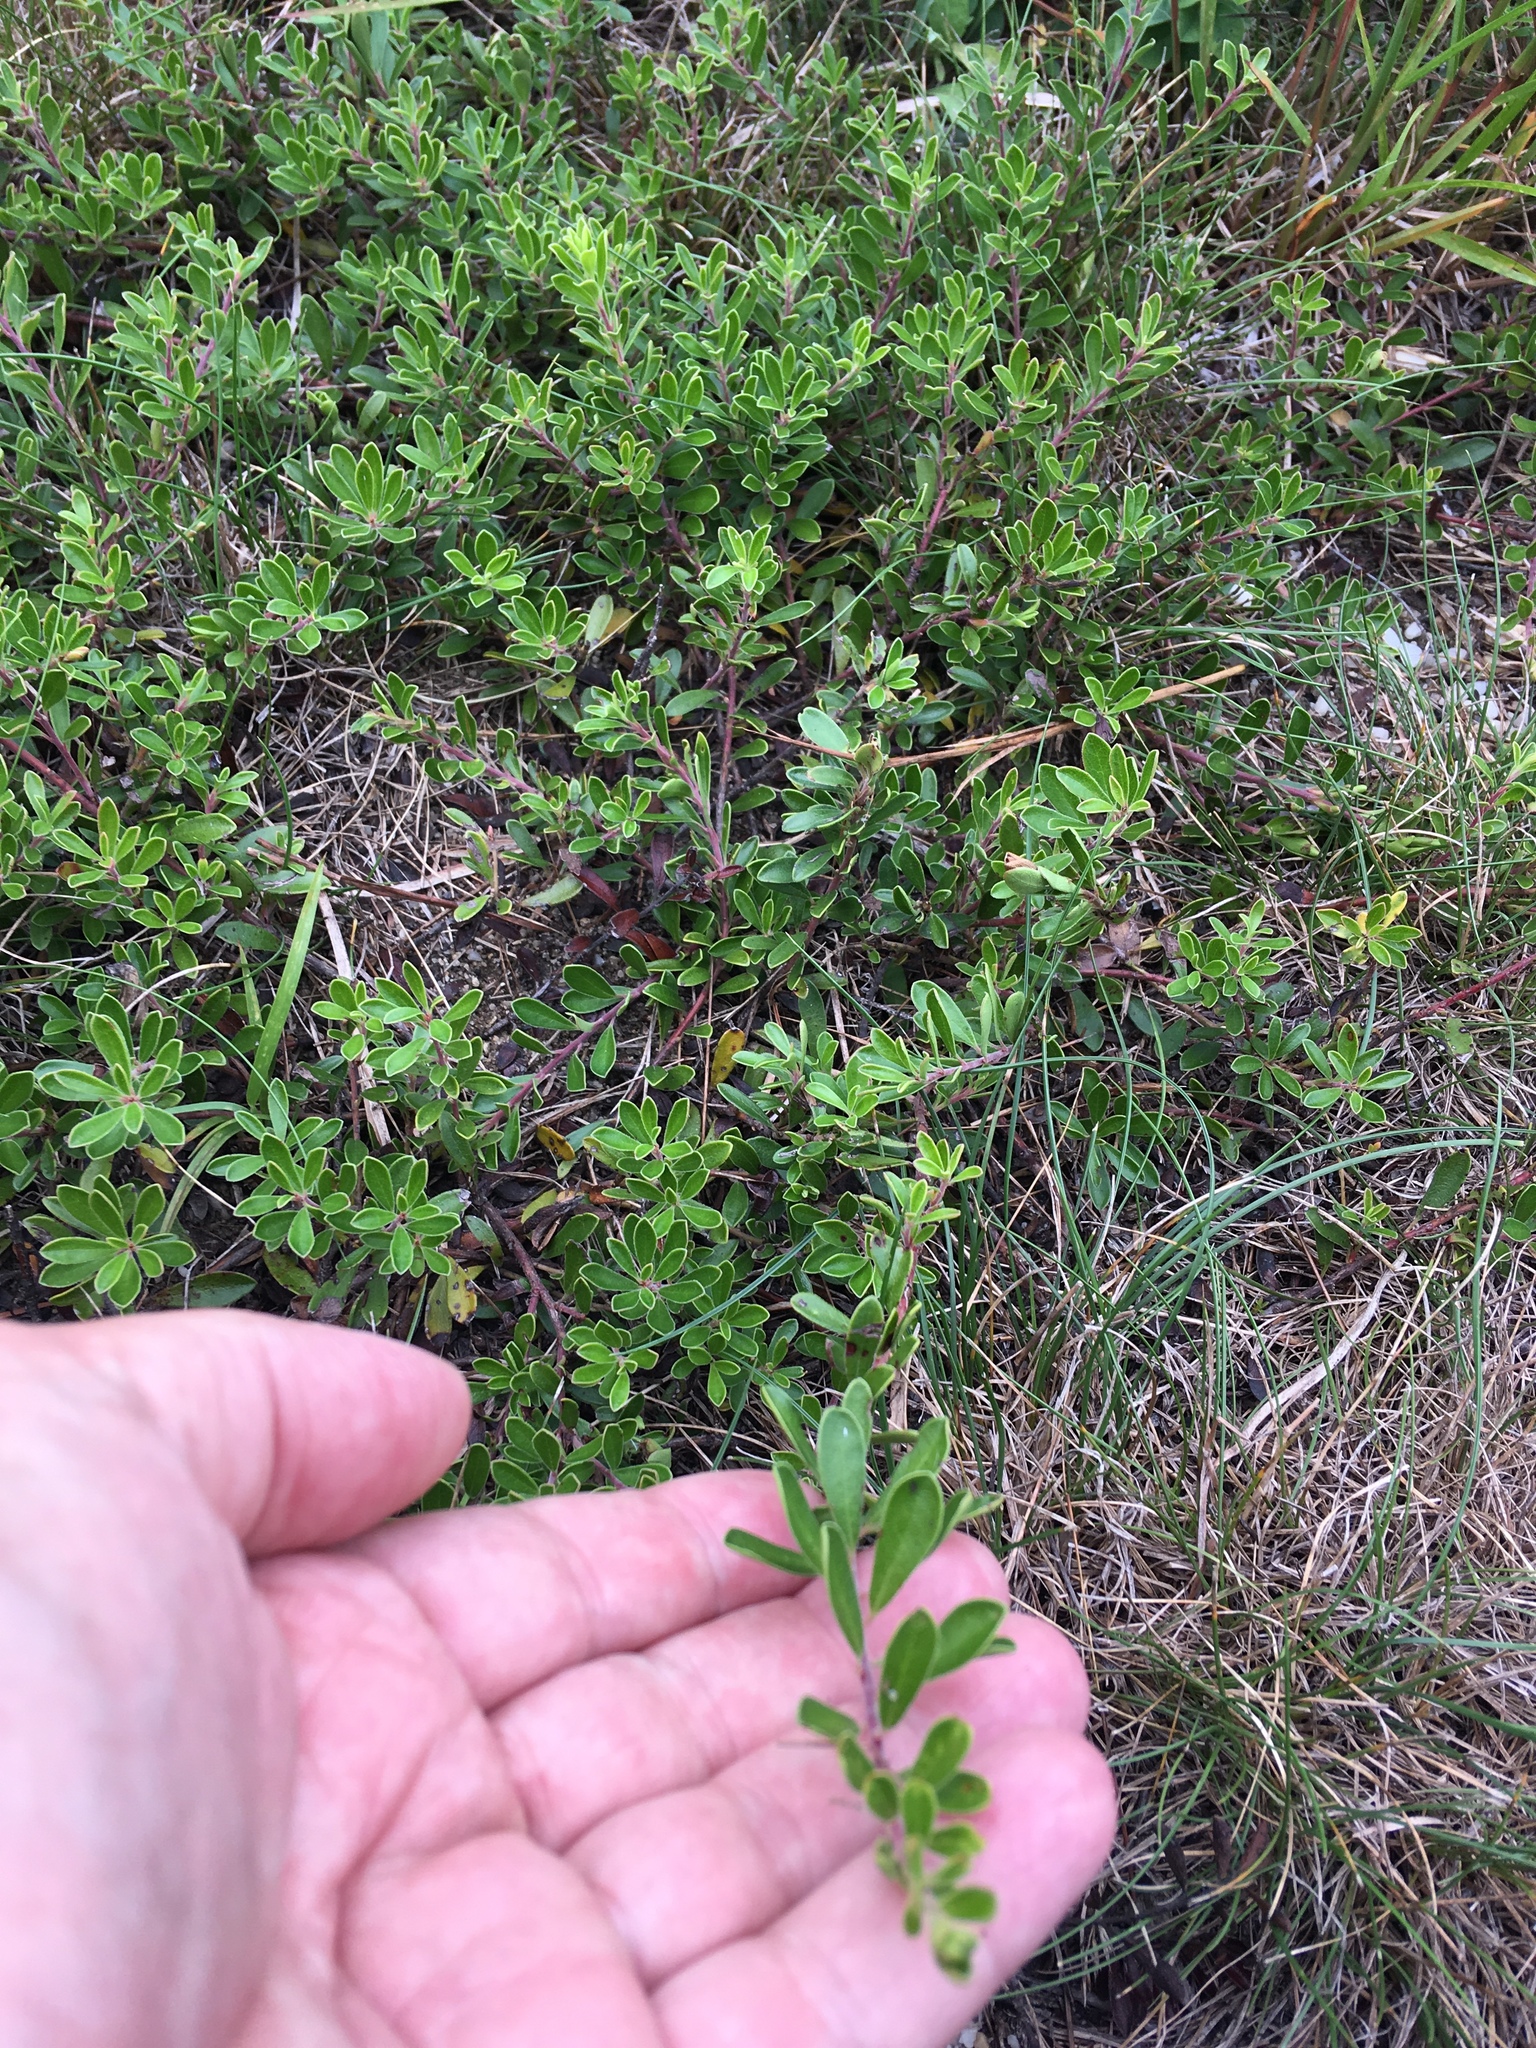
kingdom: Plantae
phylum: Tracheophyta
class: Magnoliopsida
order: Ericales
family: Ericaceae
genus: Arctostaphylos
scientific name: Arctostaphylos uva-ursi
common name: Bearberry
